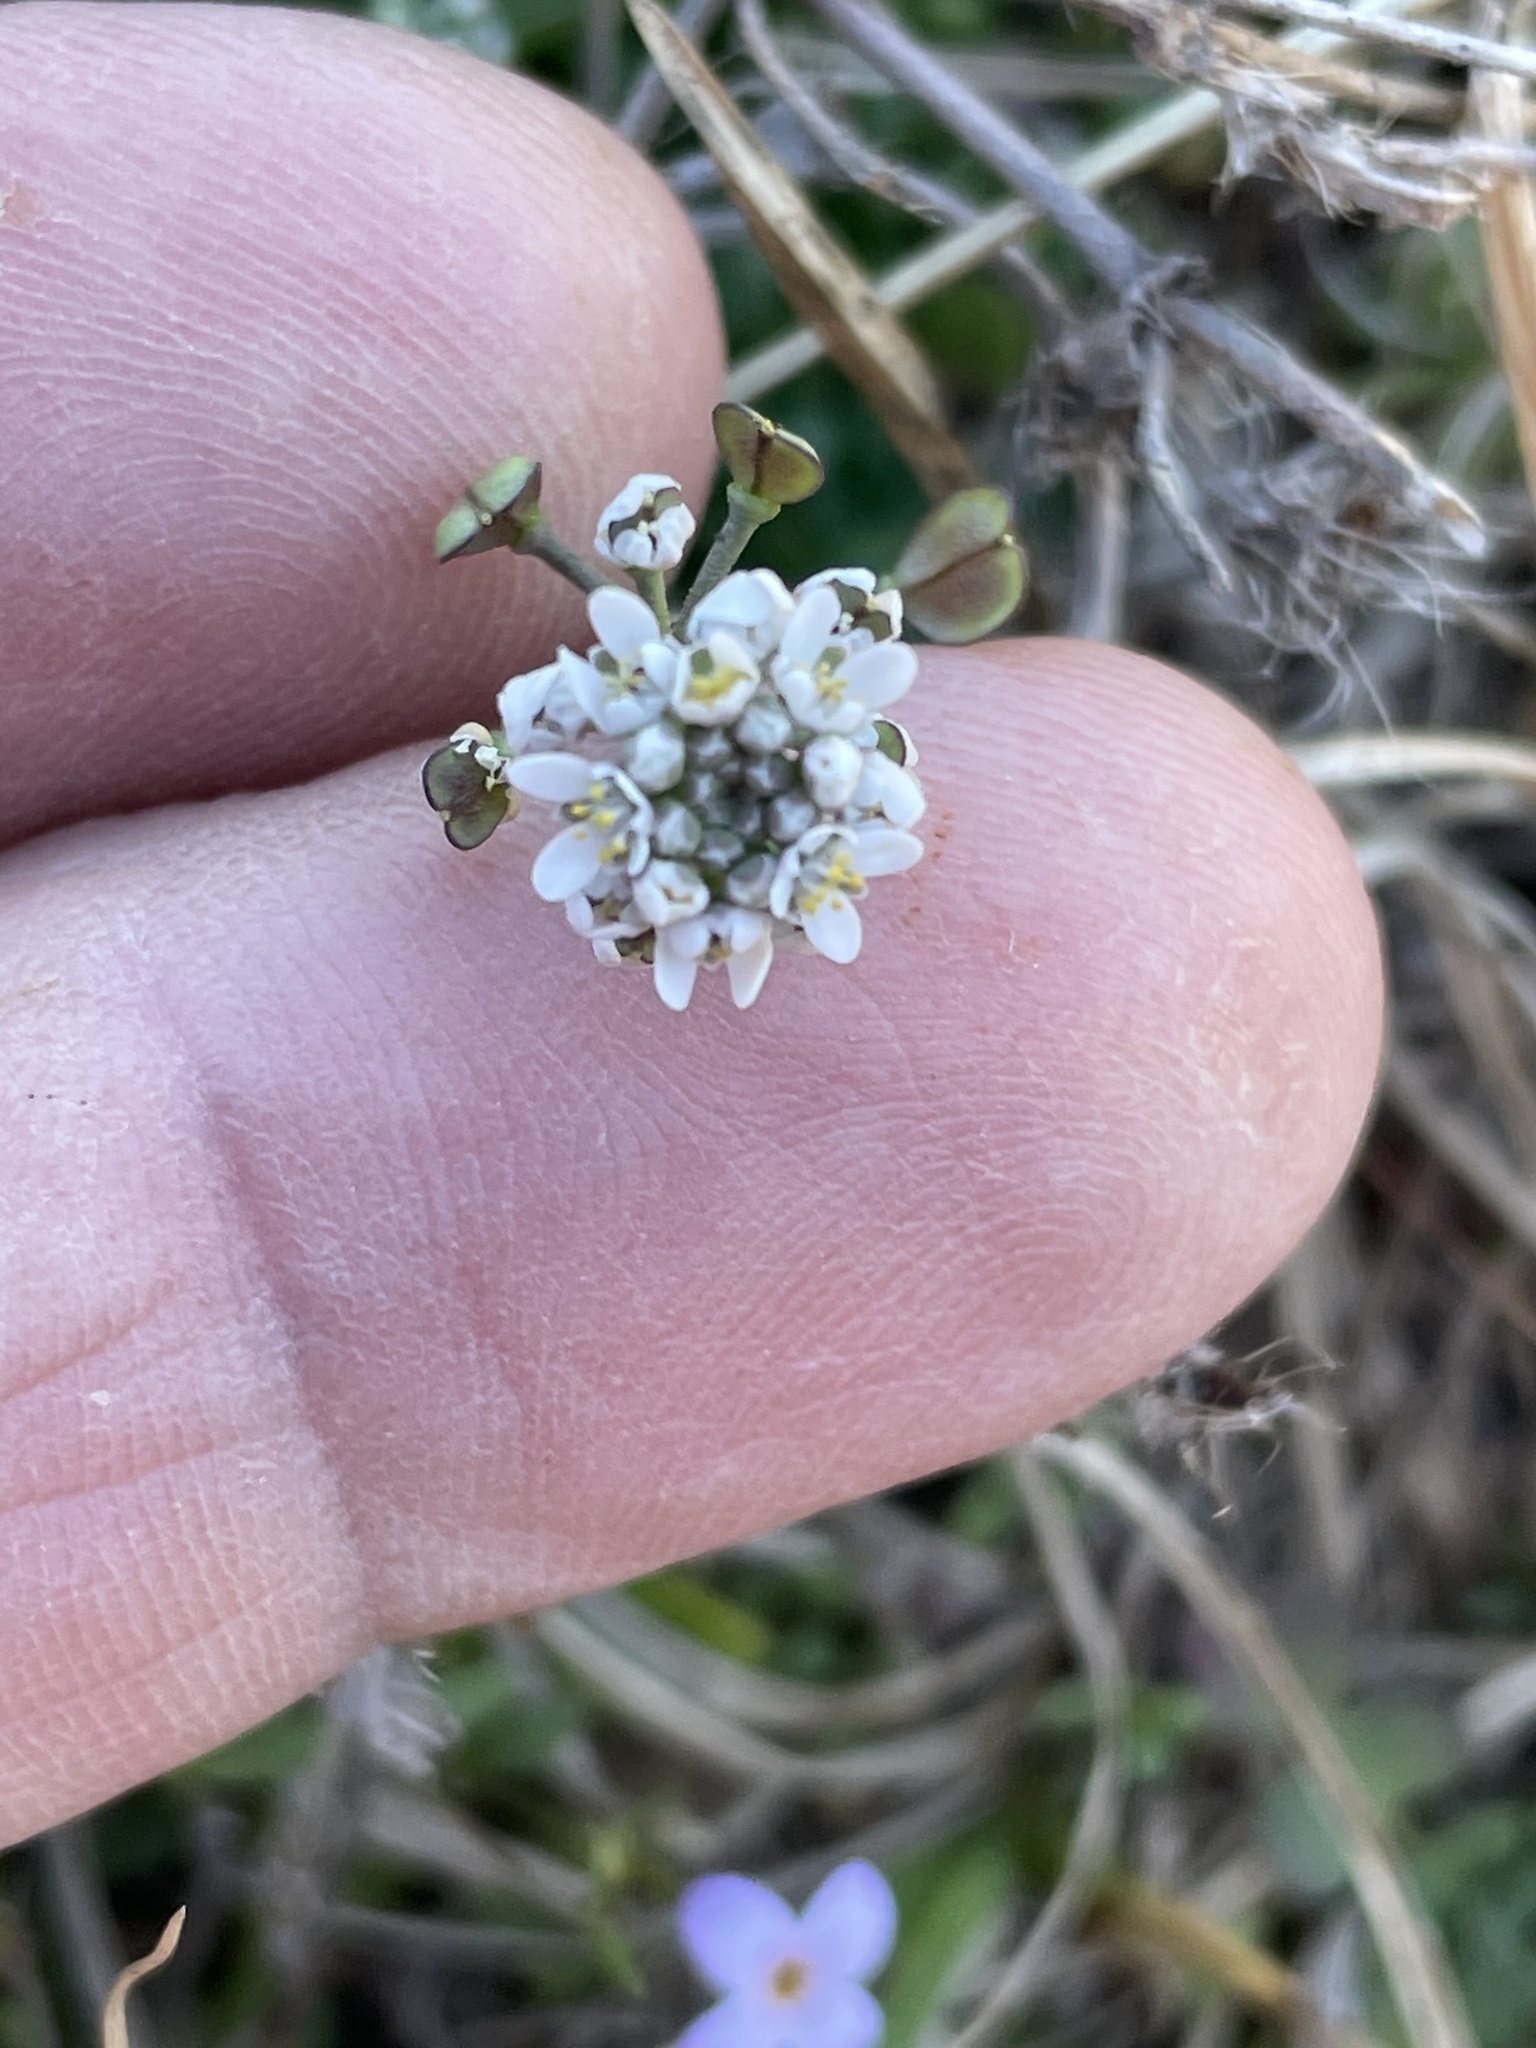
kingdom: Plantae
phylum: Tracheophyta
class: Magnoliopsida
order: Brassicales
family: Brassicaceae
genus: Teesdalia
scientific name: Teesdalia nudicaulis
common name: Shepherd's cress
